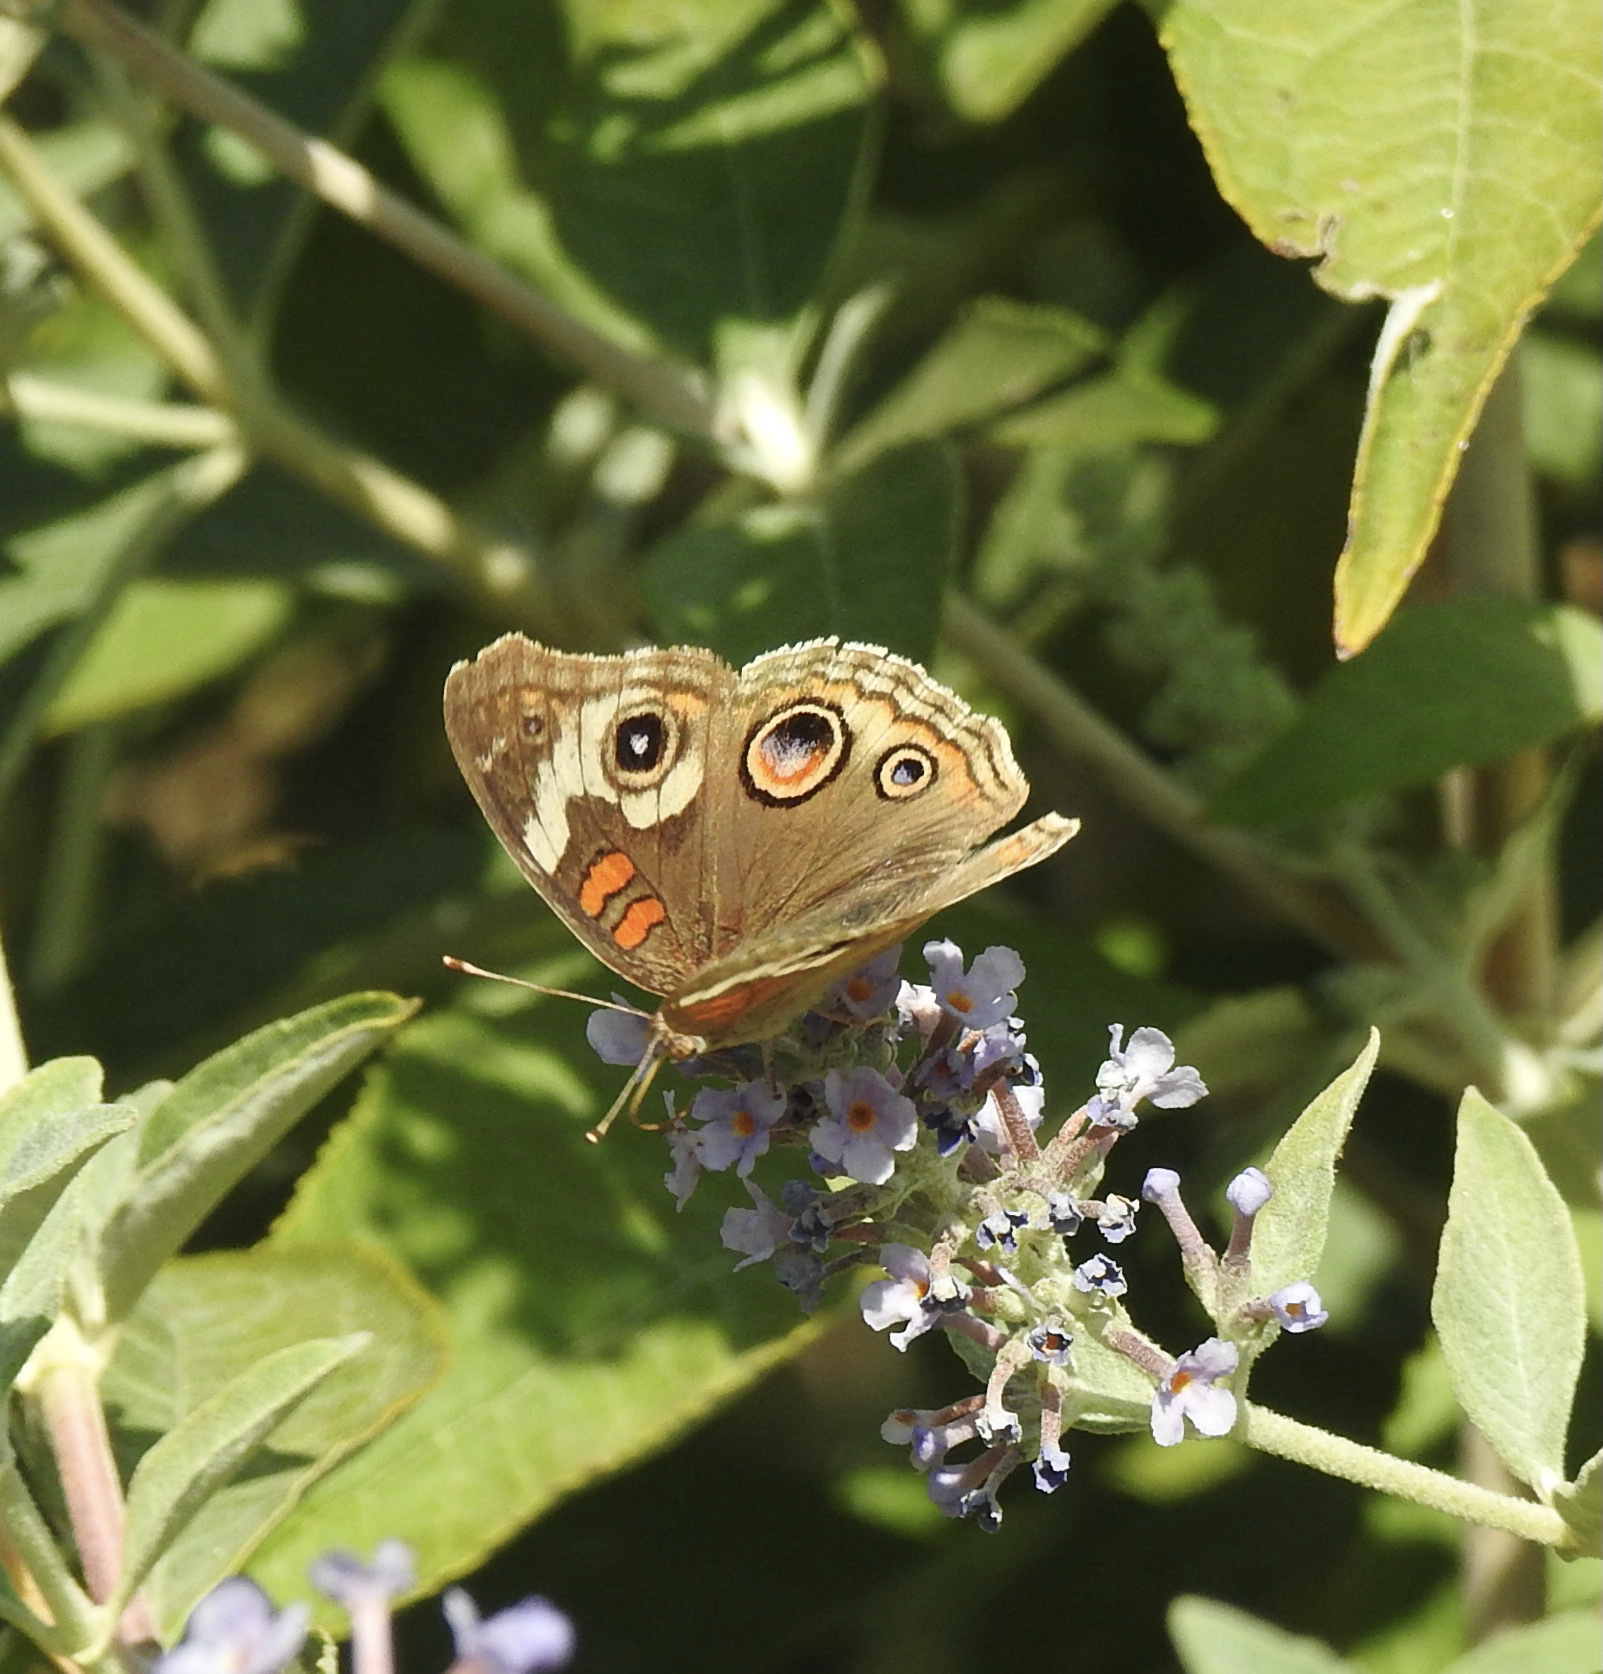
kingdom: Animalia
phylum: Arthropoda
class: Insecta
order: Lepidoptera
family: Nymphalidae
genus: Junonia
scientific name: Junonia grisea
